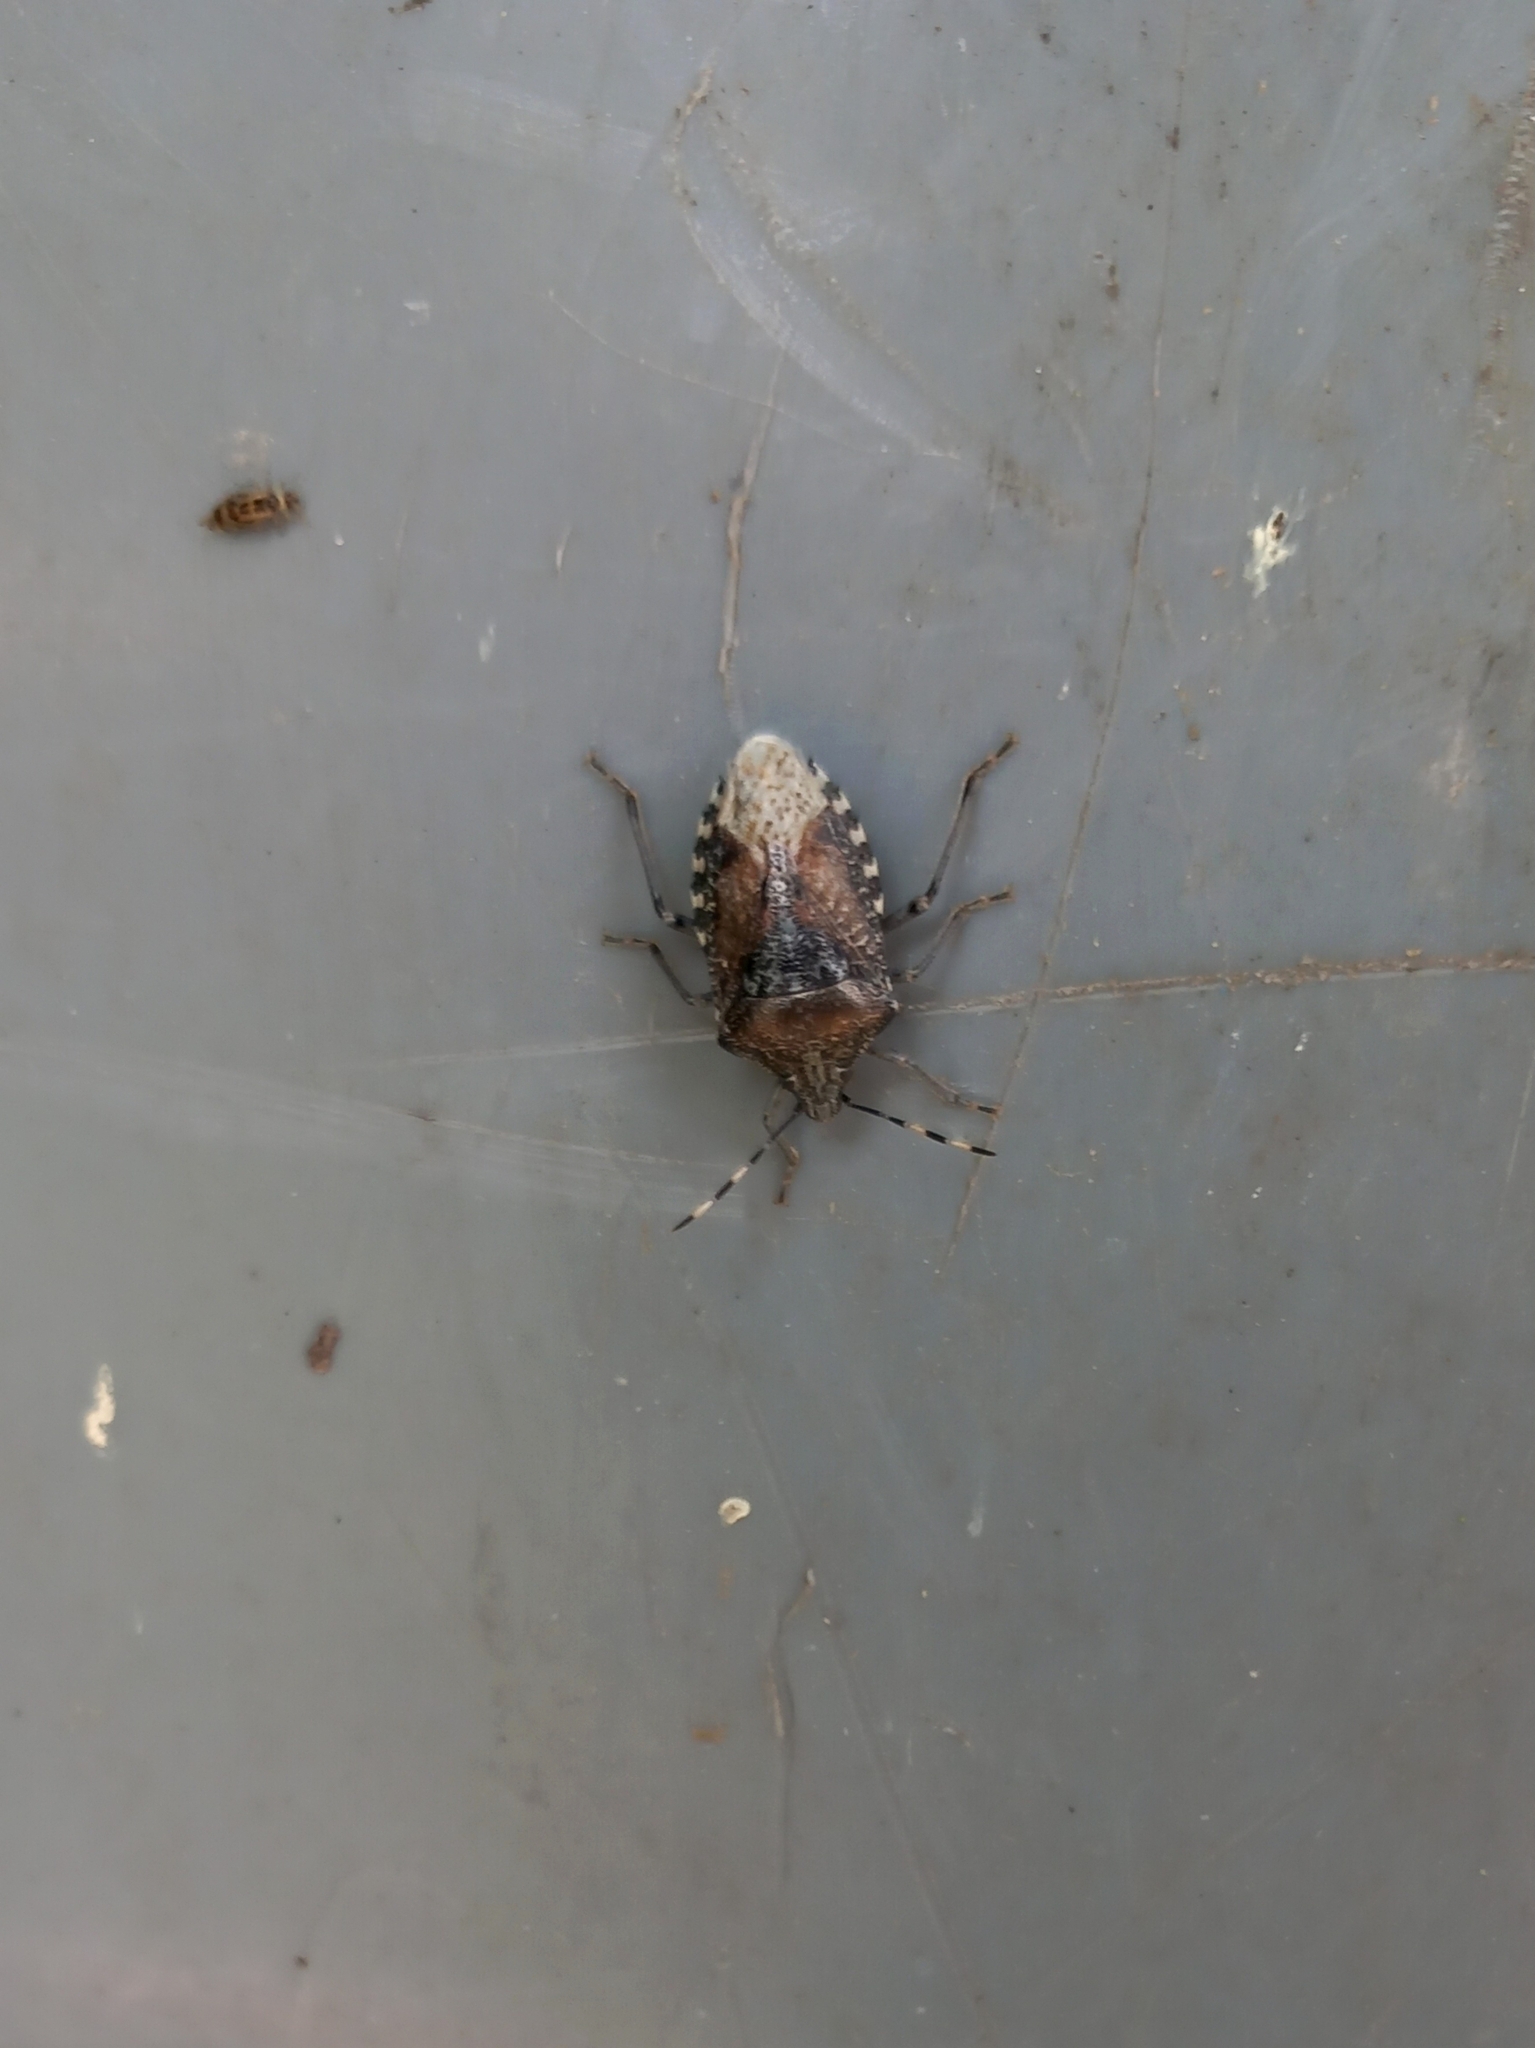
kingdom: Animalia
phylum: Arthropoda
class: Insecta
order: Hemiptera
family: Pentatomidae
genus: Rhaphigaster
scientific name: Rhaphigaster nebulosa
